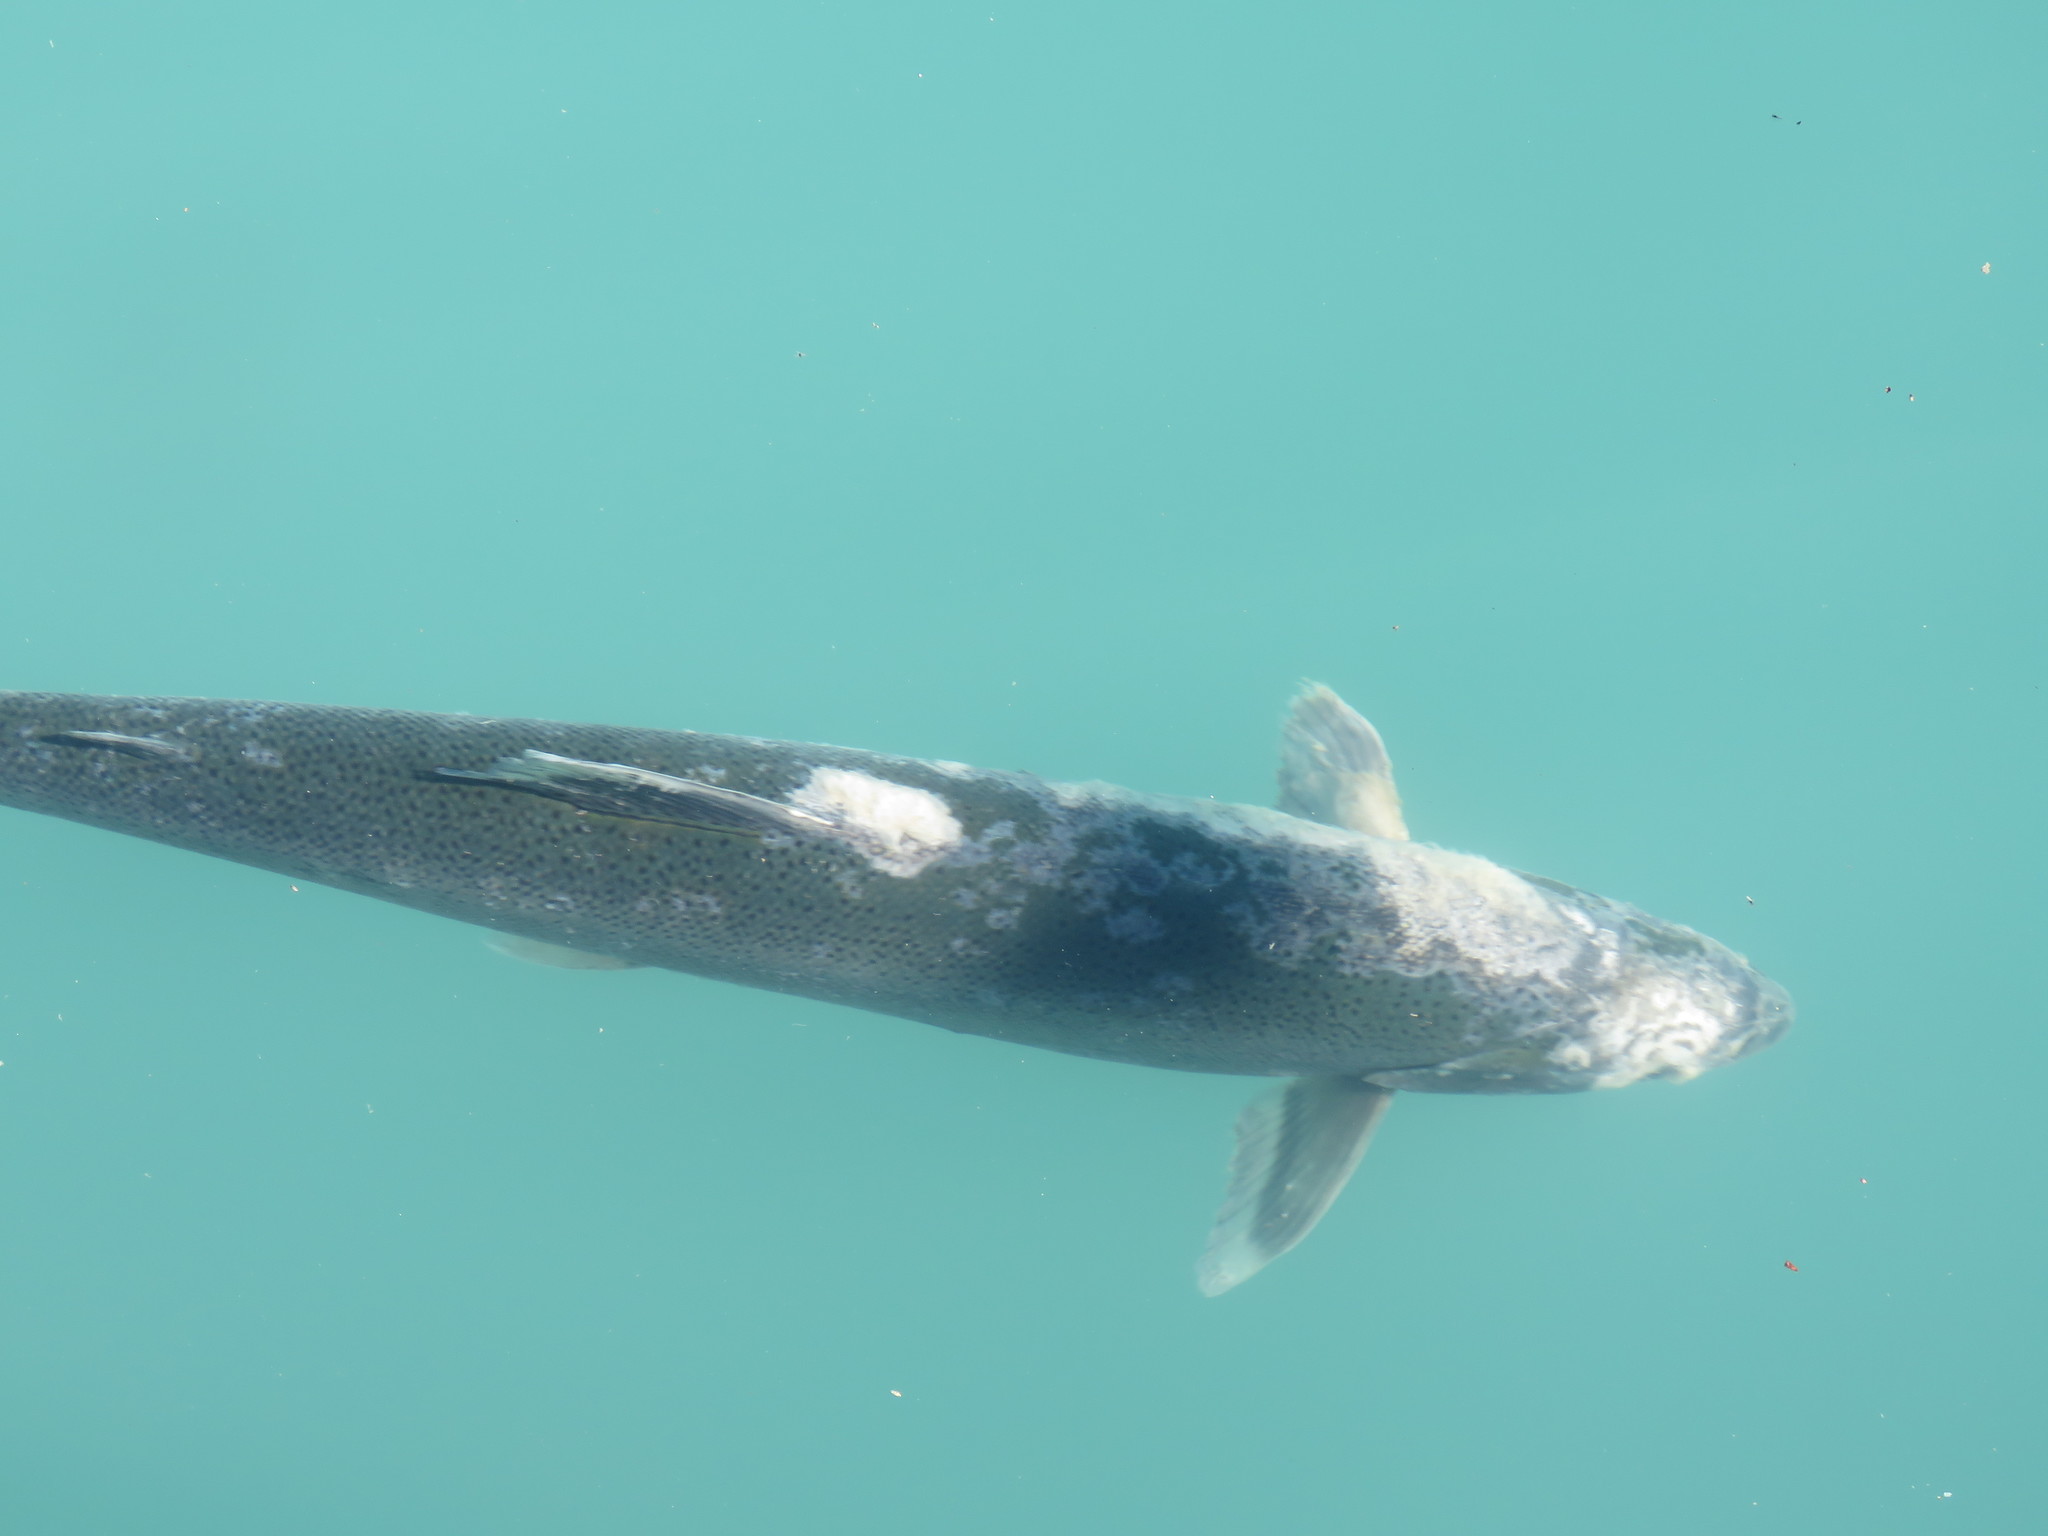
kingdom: Animalia
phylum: Chordata
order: Salmoniformes
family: Salmonidae
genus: Oncorhynchus
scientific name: Oncorhynchus mykiss
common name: Rainbow trout
